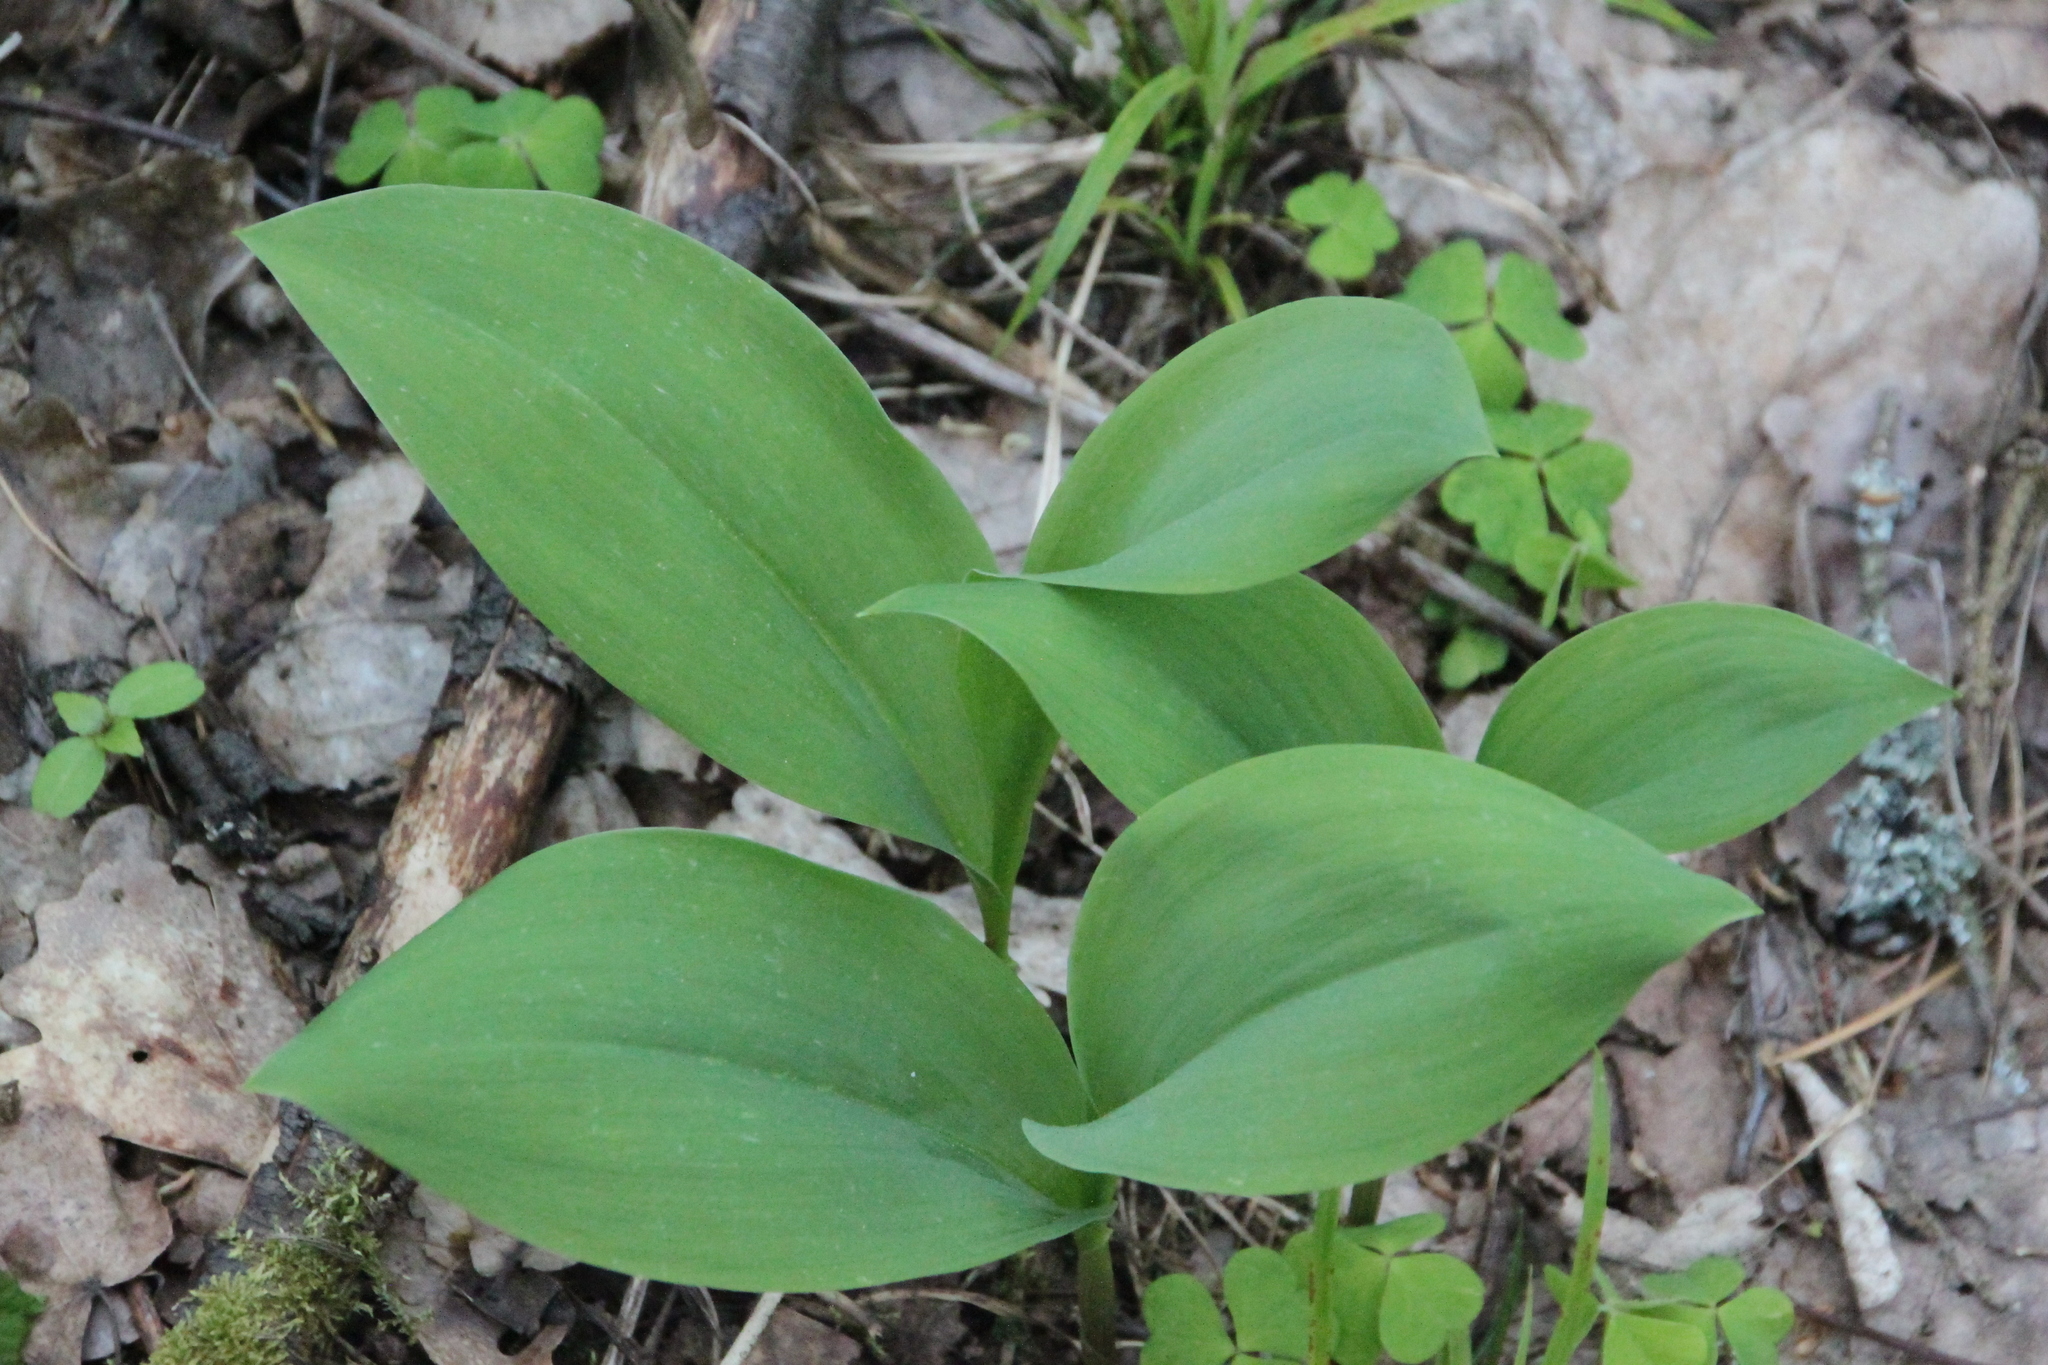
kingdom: Plantae
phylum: Tracheophyta
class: Liliopsida
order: Asparagales
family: Asparagaceae
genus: Convallaria
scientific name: Convallaria majalis
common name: Lily-of-the-valley
